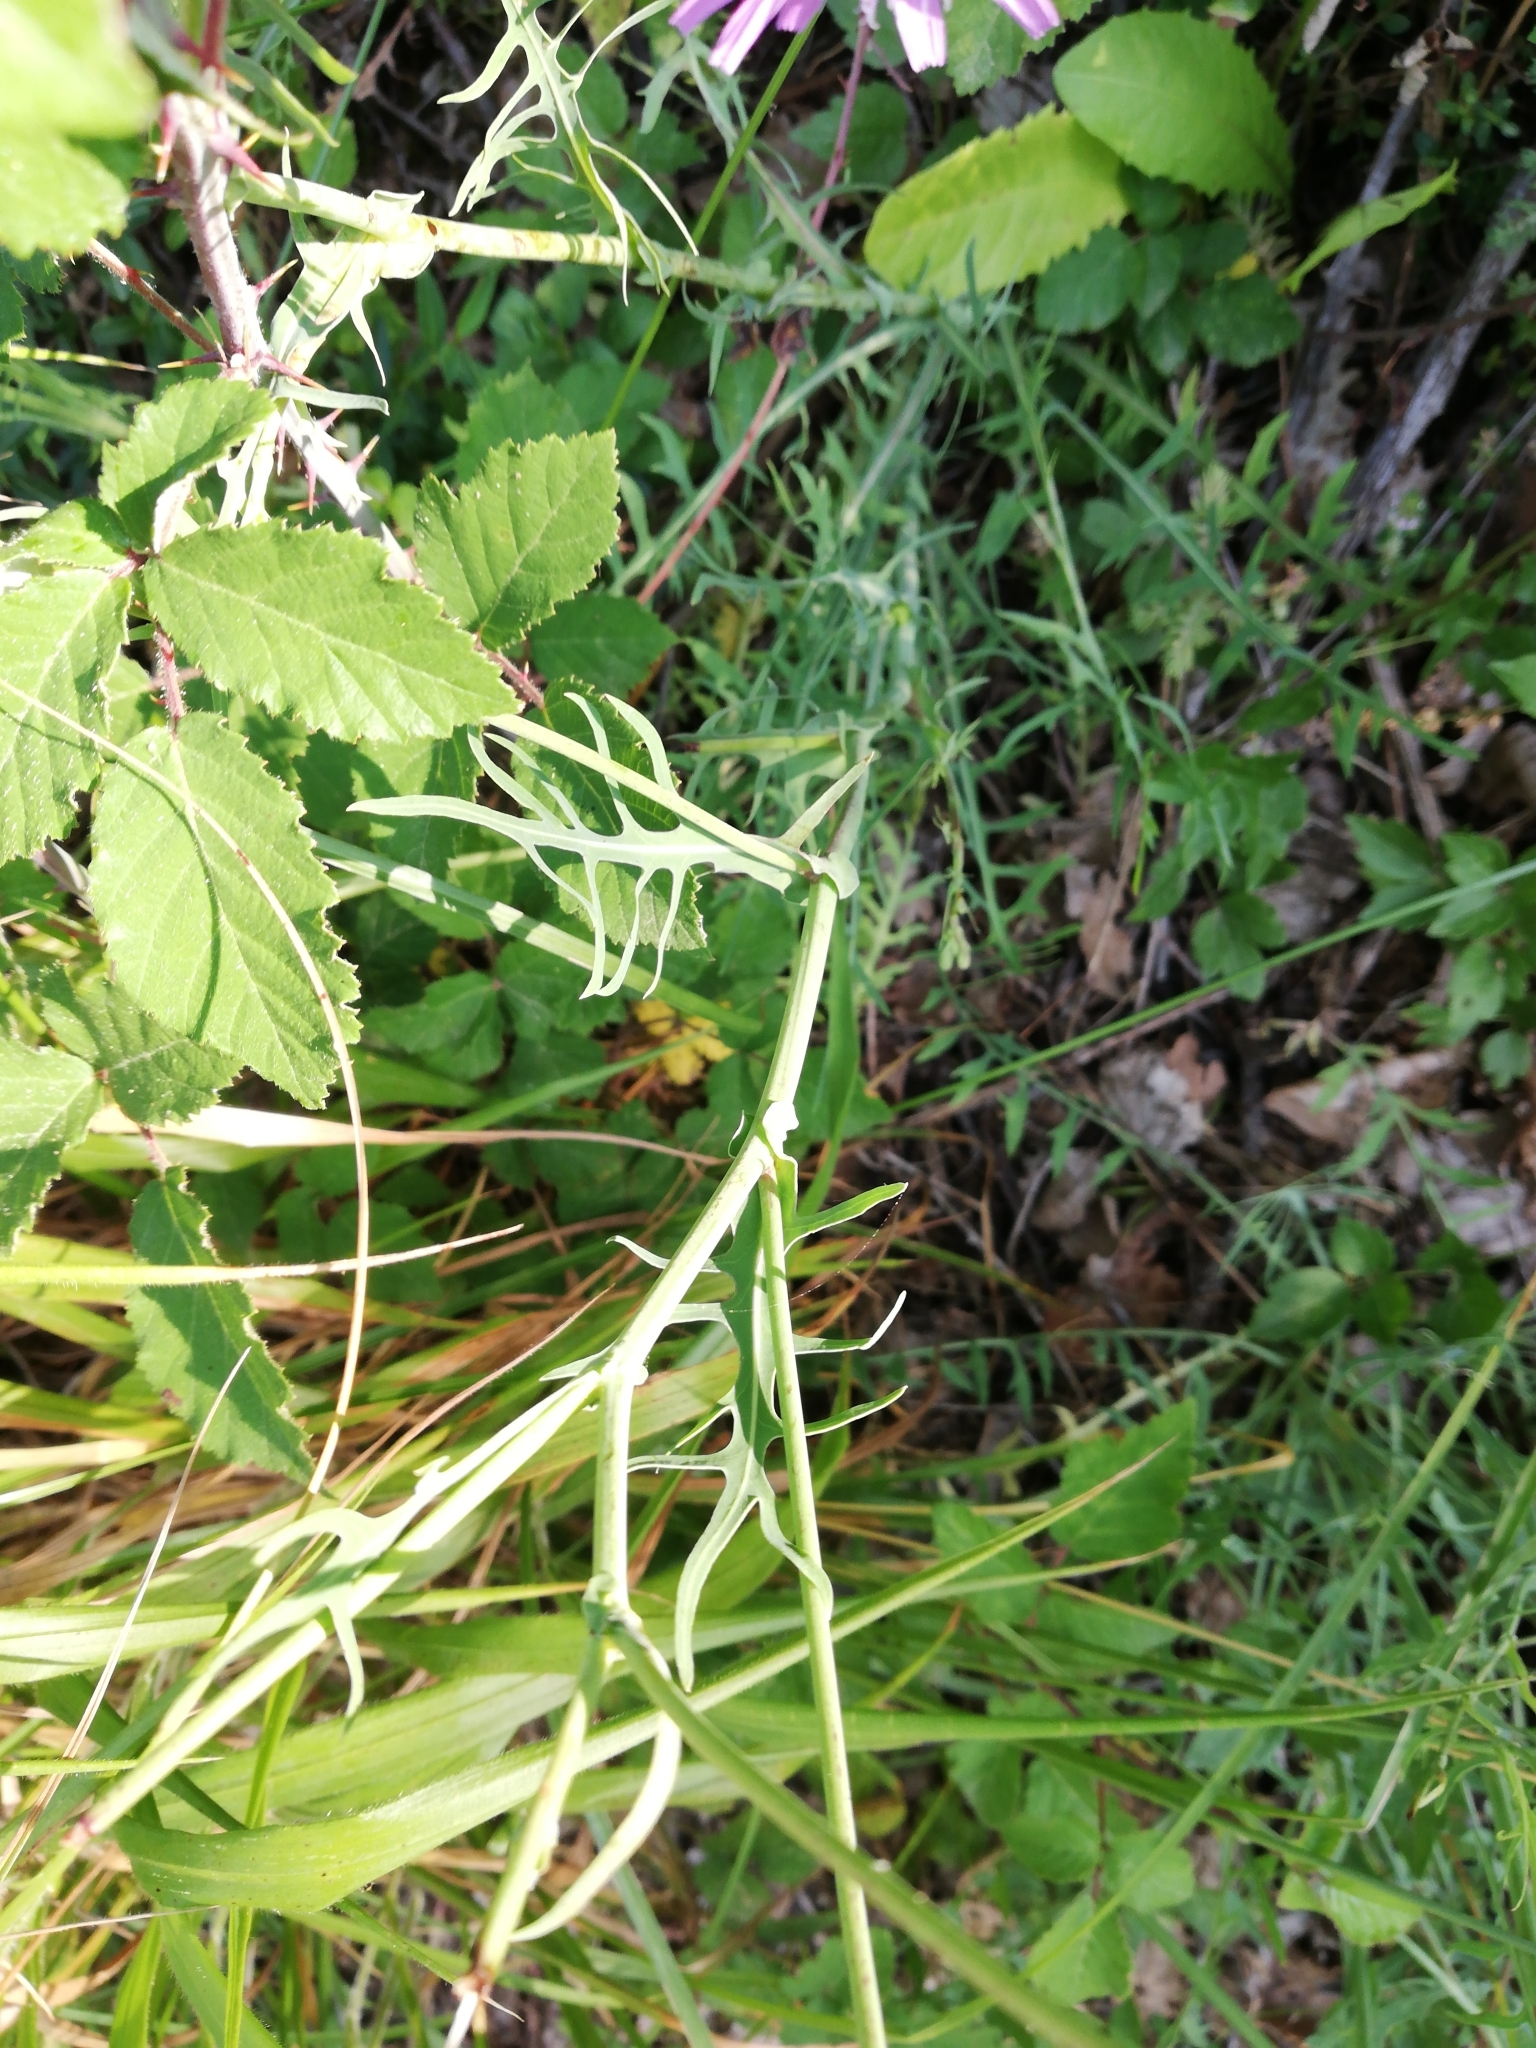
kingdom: Plantae
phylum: Tracheophyta
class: Magnoliopsida
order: Asterales
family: Asteraceae
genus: Lactuca
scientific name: Lactuca perennis
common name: Mountain lettuce
